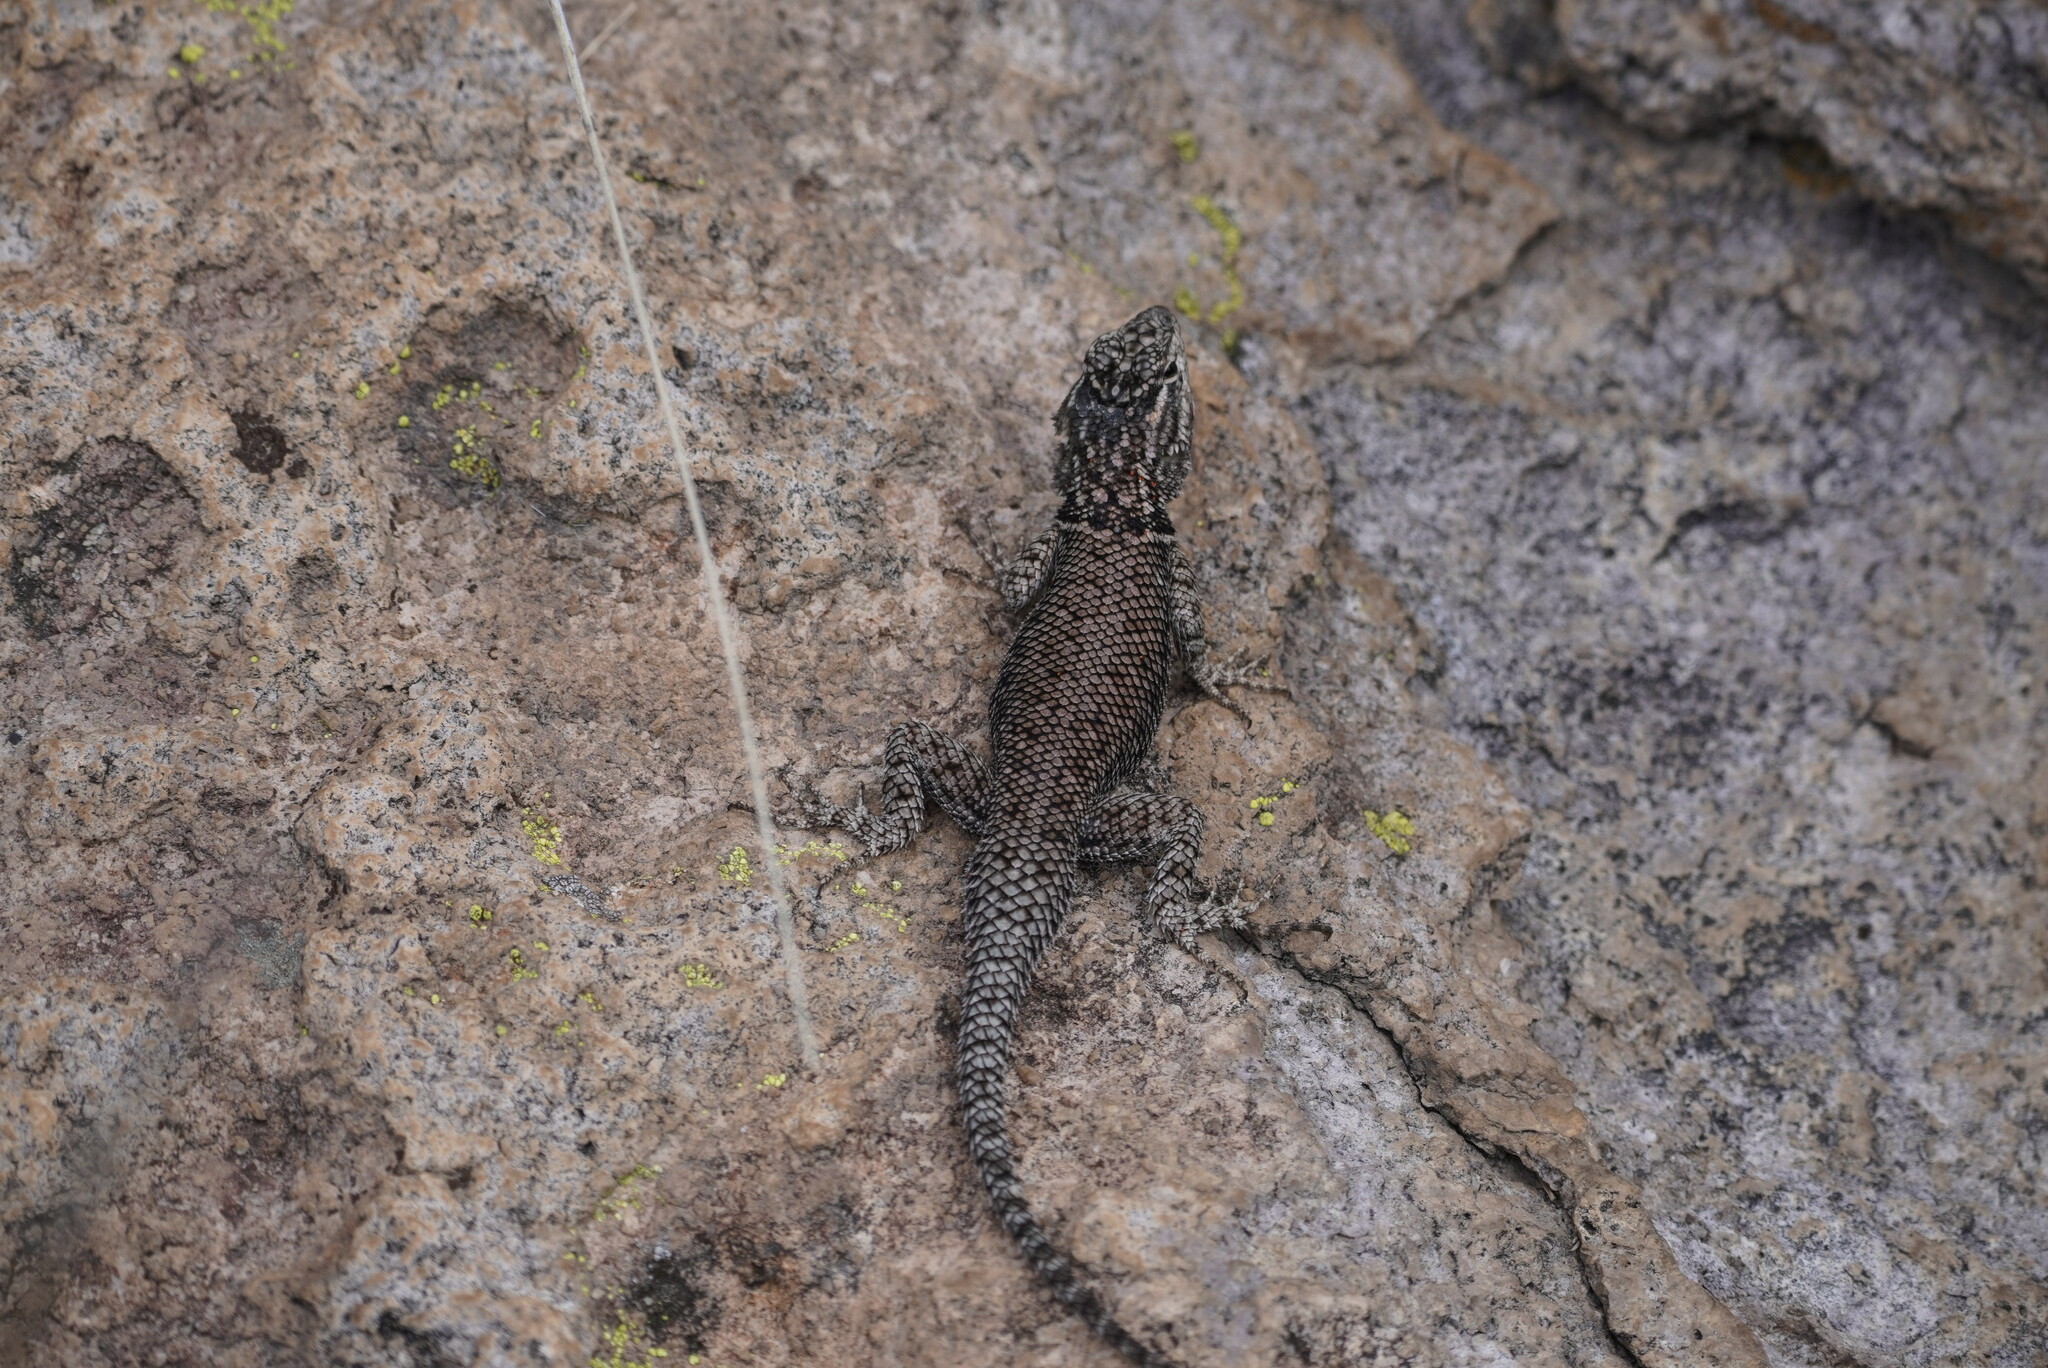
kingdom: Animalia
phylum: Chordata
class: Squamata
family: Phrynosomatidae
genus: Sceloporus
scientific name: Sceloporus jarrovii
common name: Yarrow's spiny lizard
